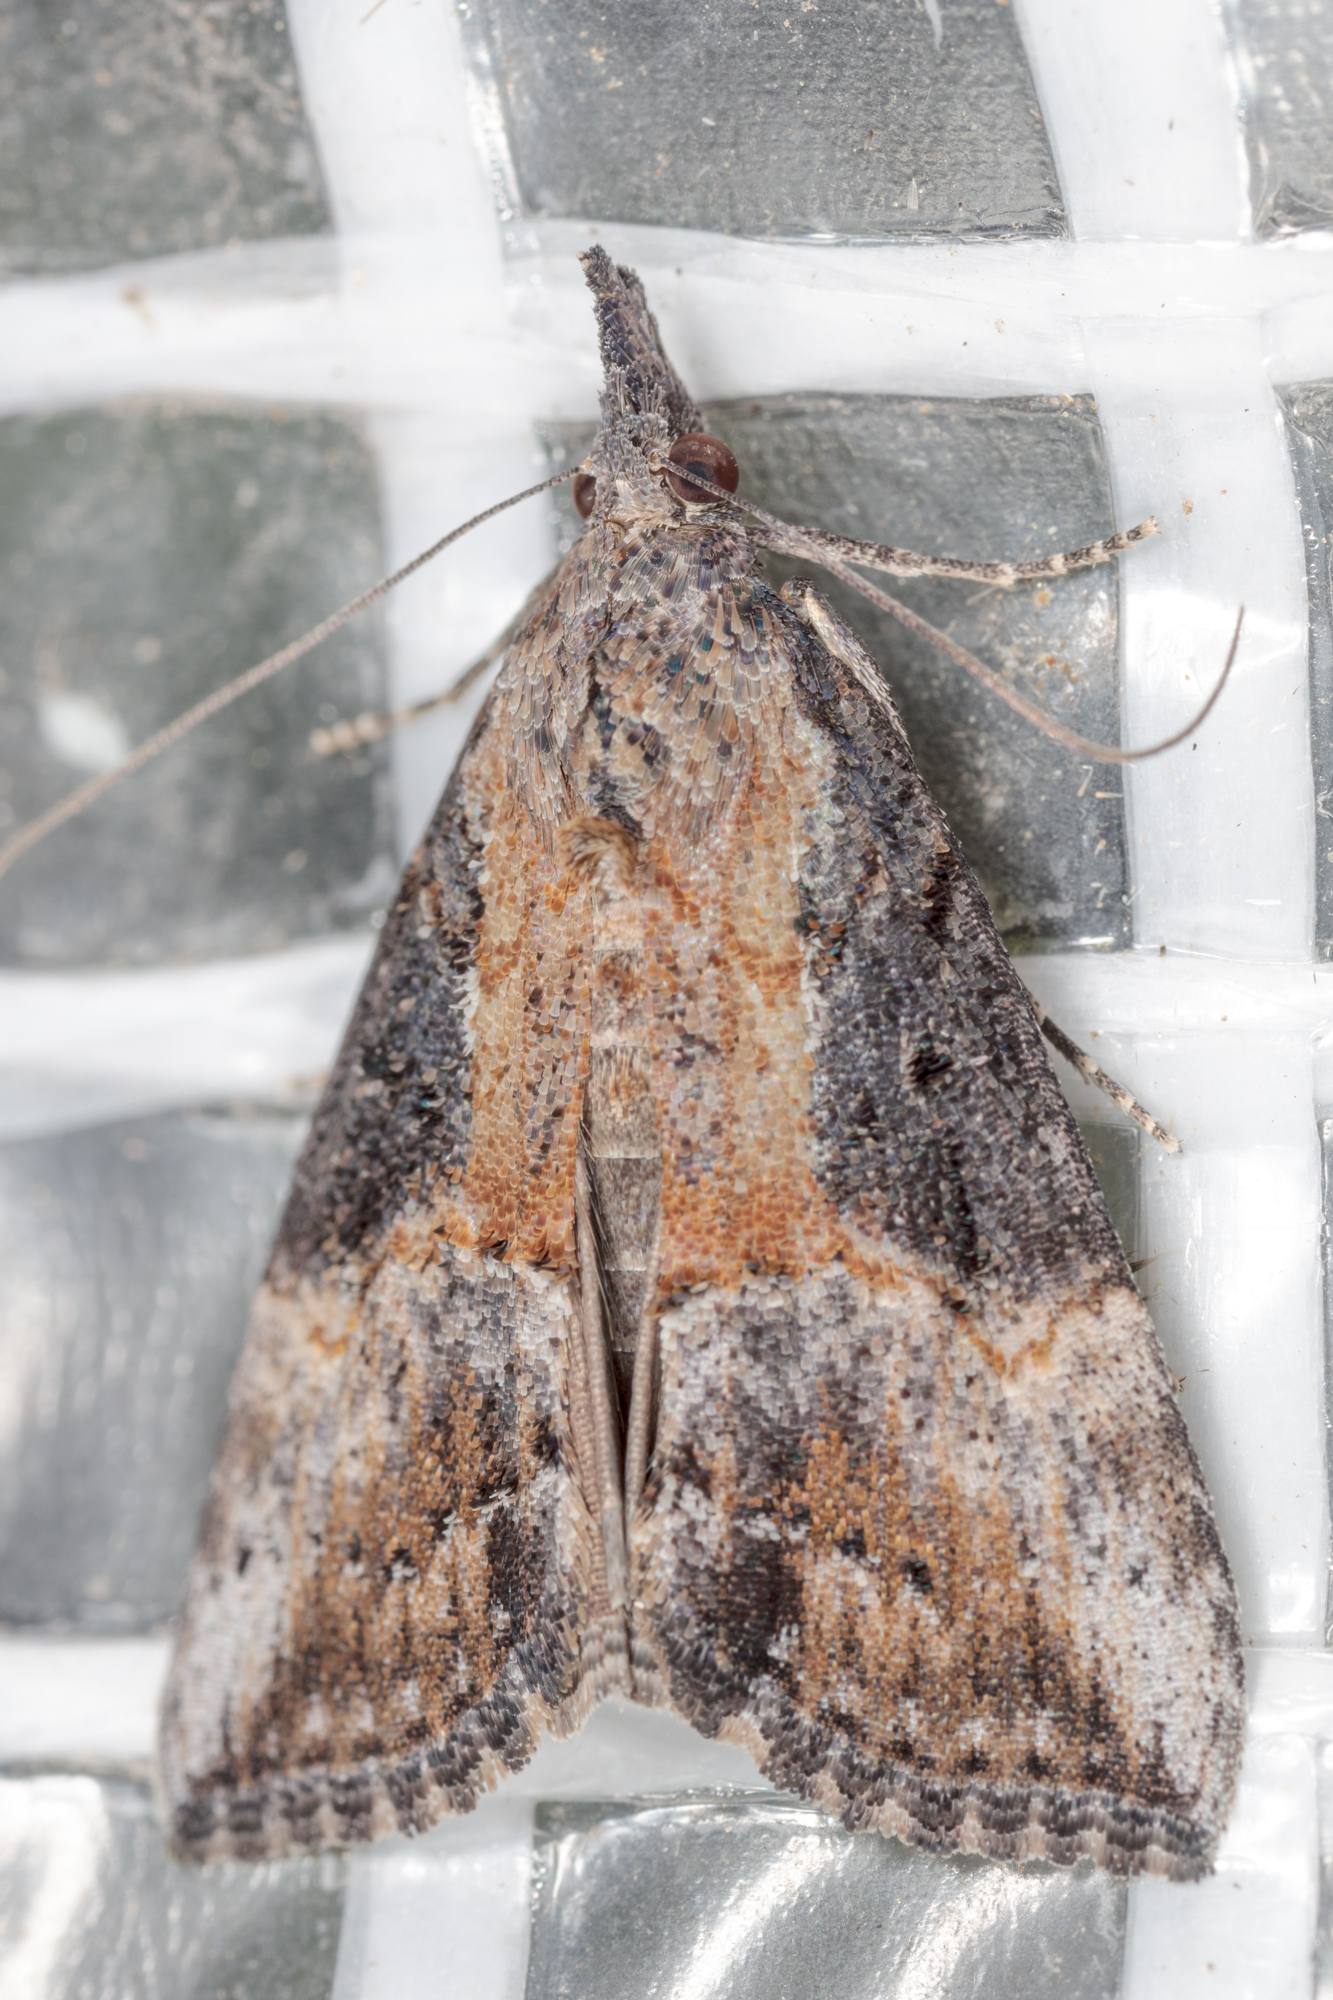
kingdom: Animalia
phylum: Arthropoda
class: Insecta
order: Lepidoptera
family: Erebidae
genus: Hypena
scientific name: Hypena scabra
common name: Green cloverworm
